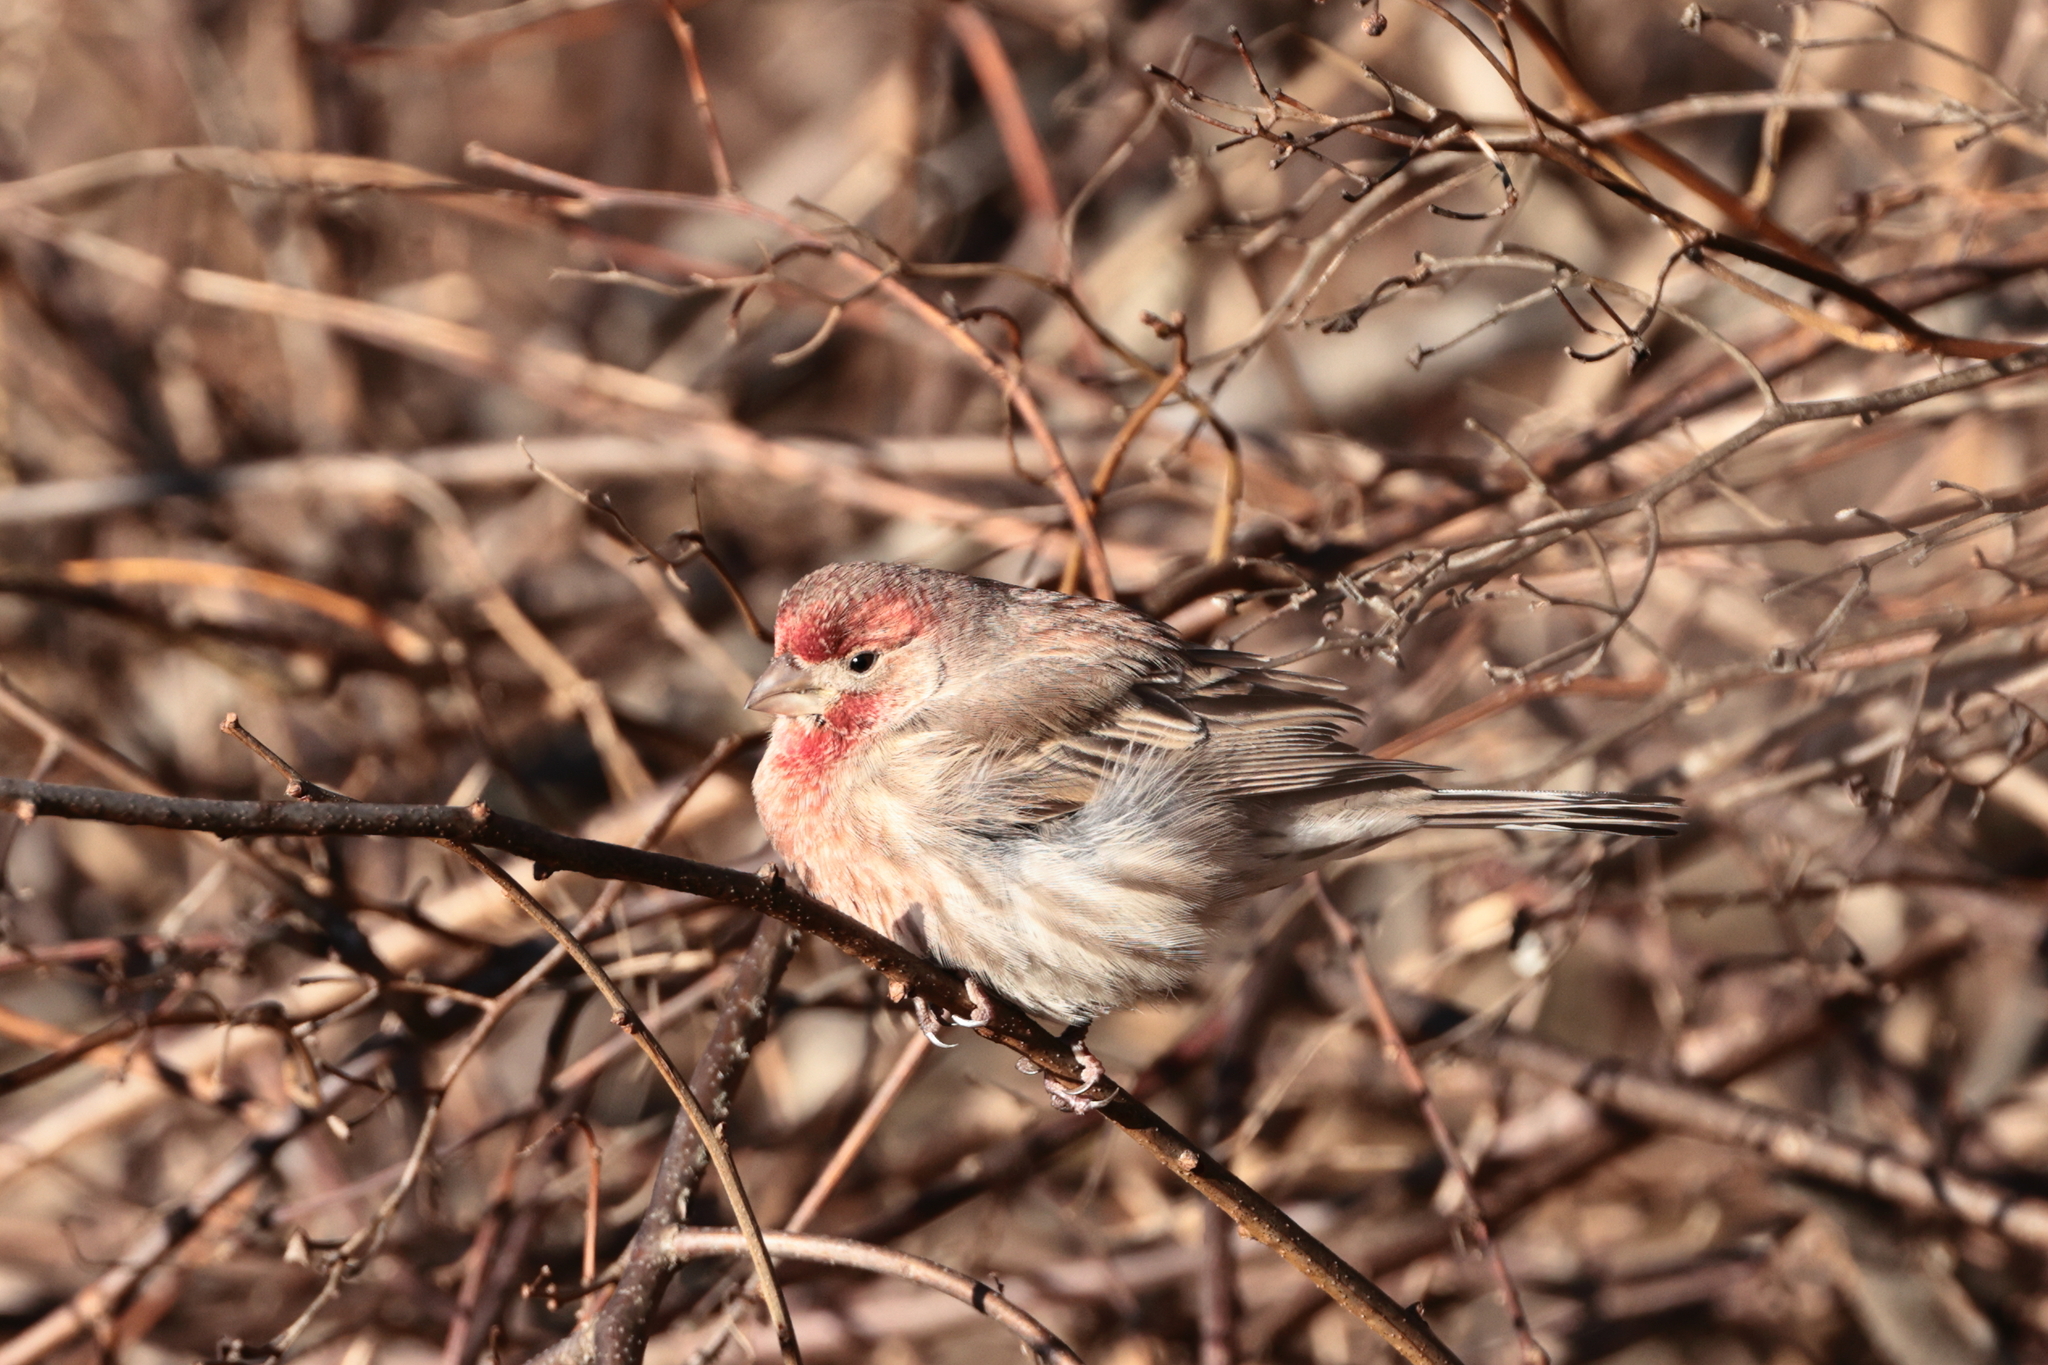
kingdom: Animalia
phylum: Chordata
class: Aves
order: Passeriformes
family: Fringillidae
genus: Haemorhous
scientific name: Haemorhous mexicanus
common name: House finch
